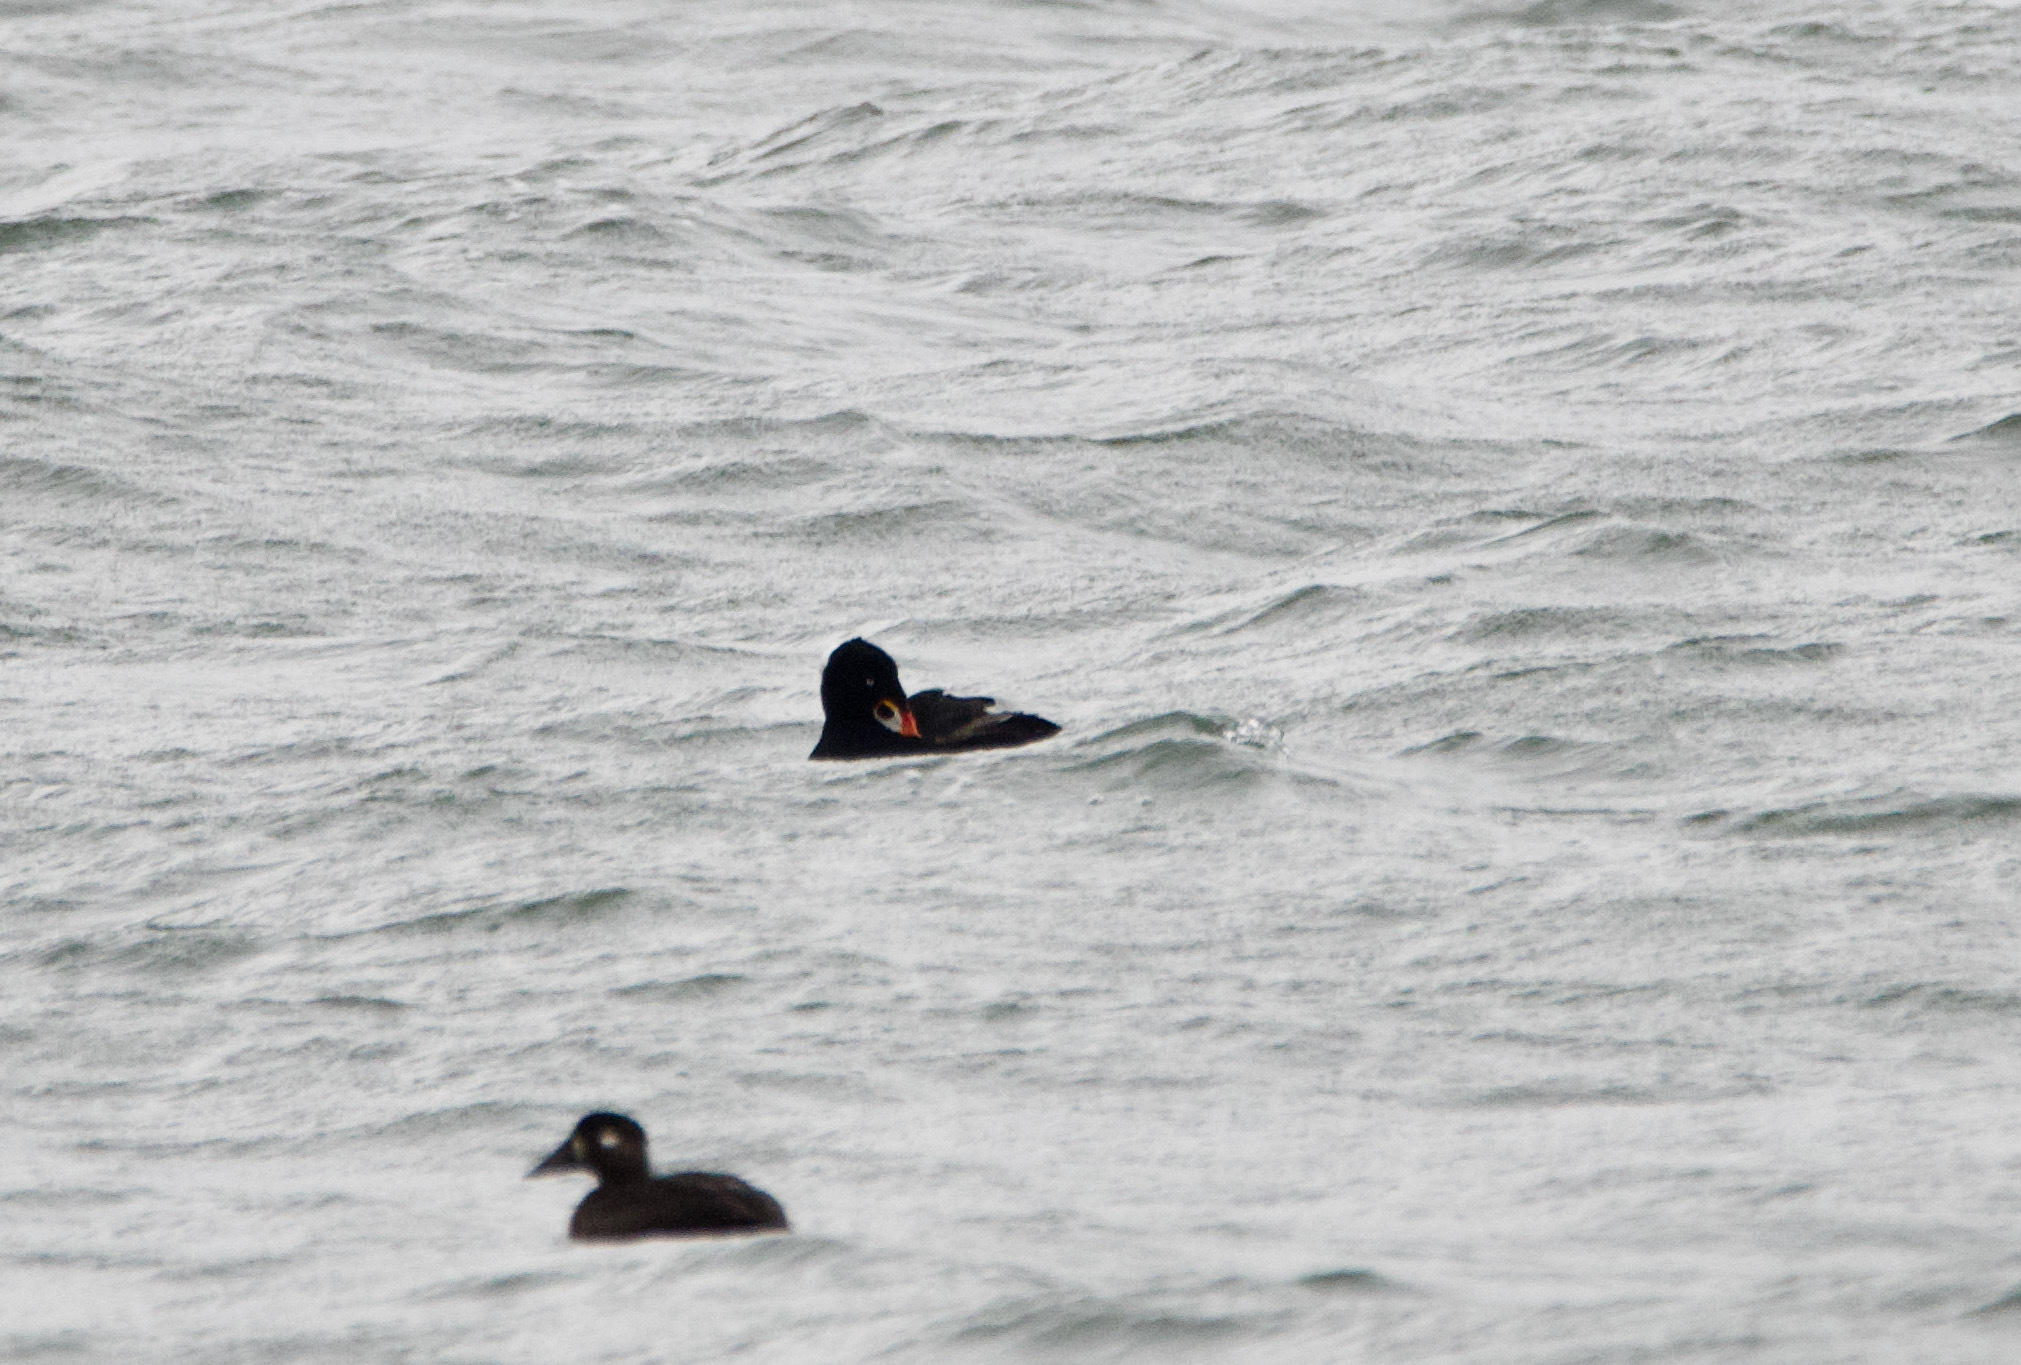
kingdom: Animalia
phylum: Chordata
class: Aves
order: Anseriformes
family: Anatidae
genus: Melanitta
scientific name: Melanitta perspicillata
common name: Surf scoter
